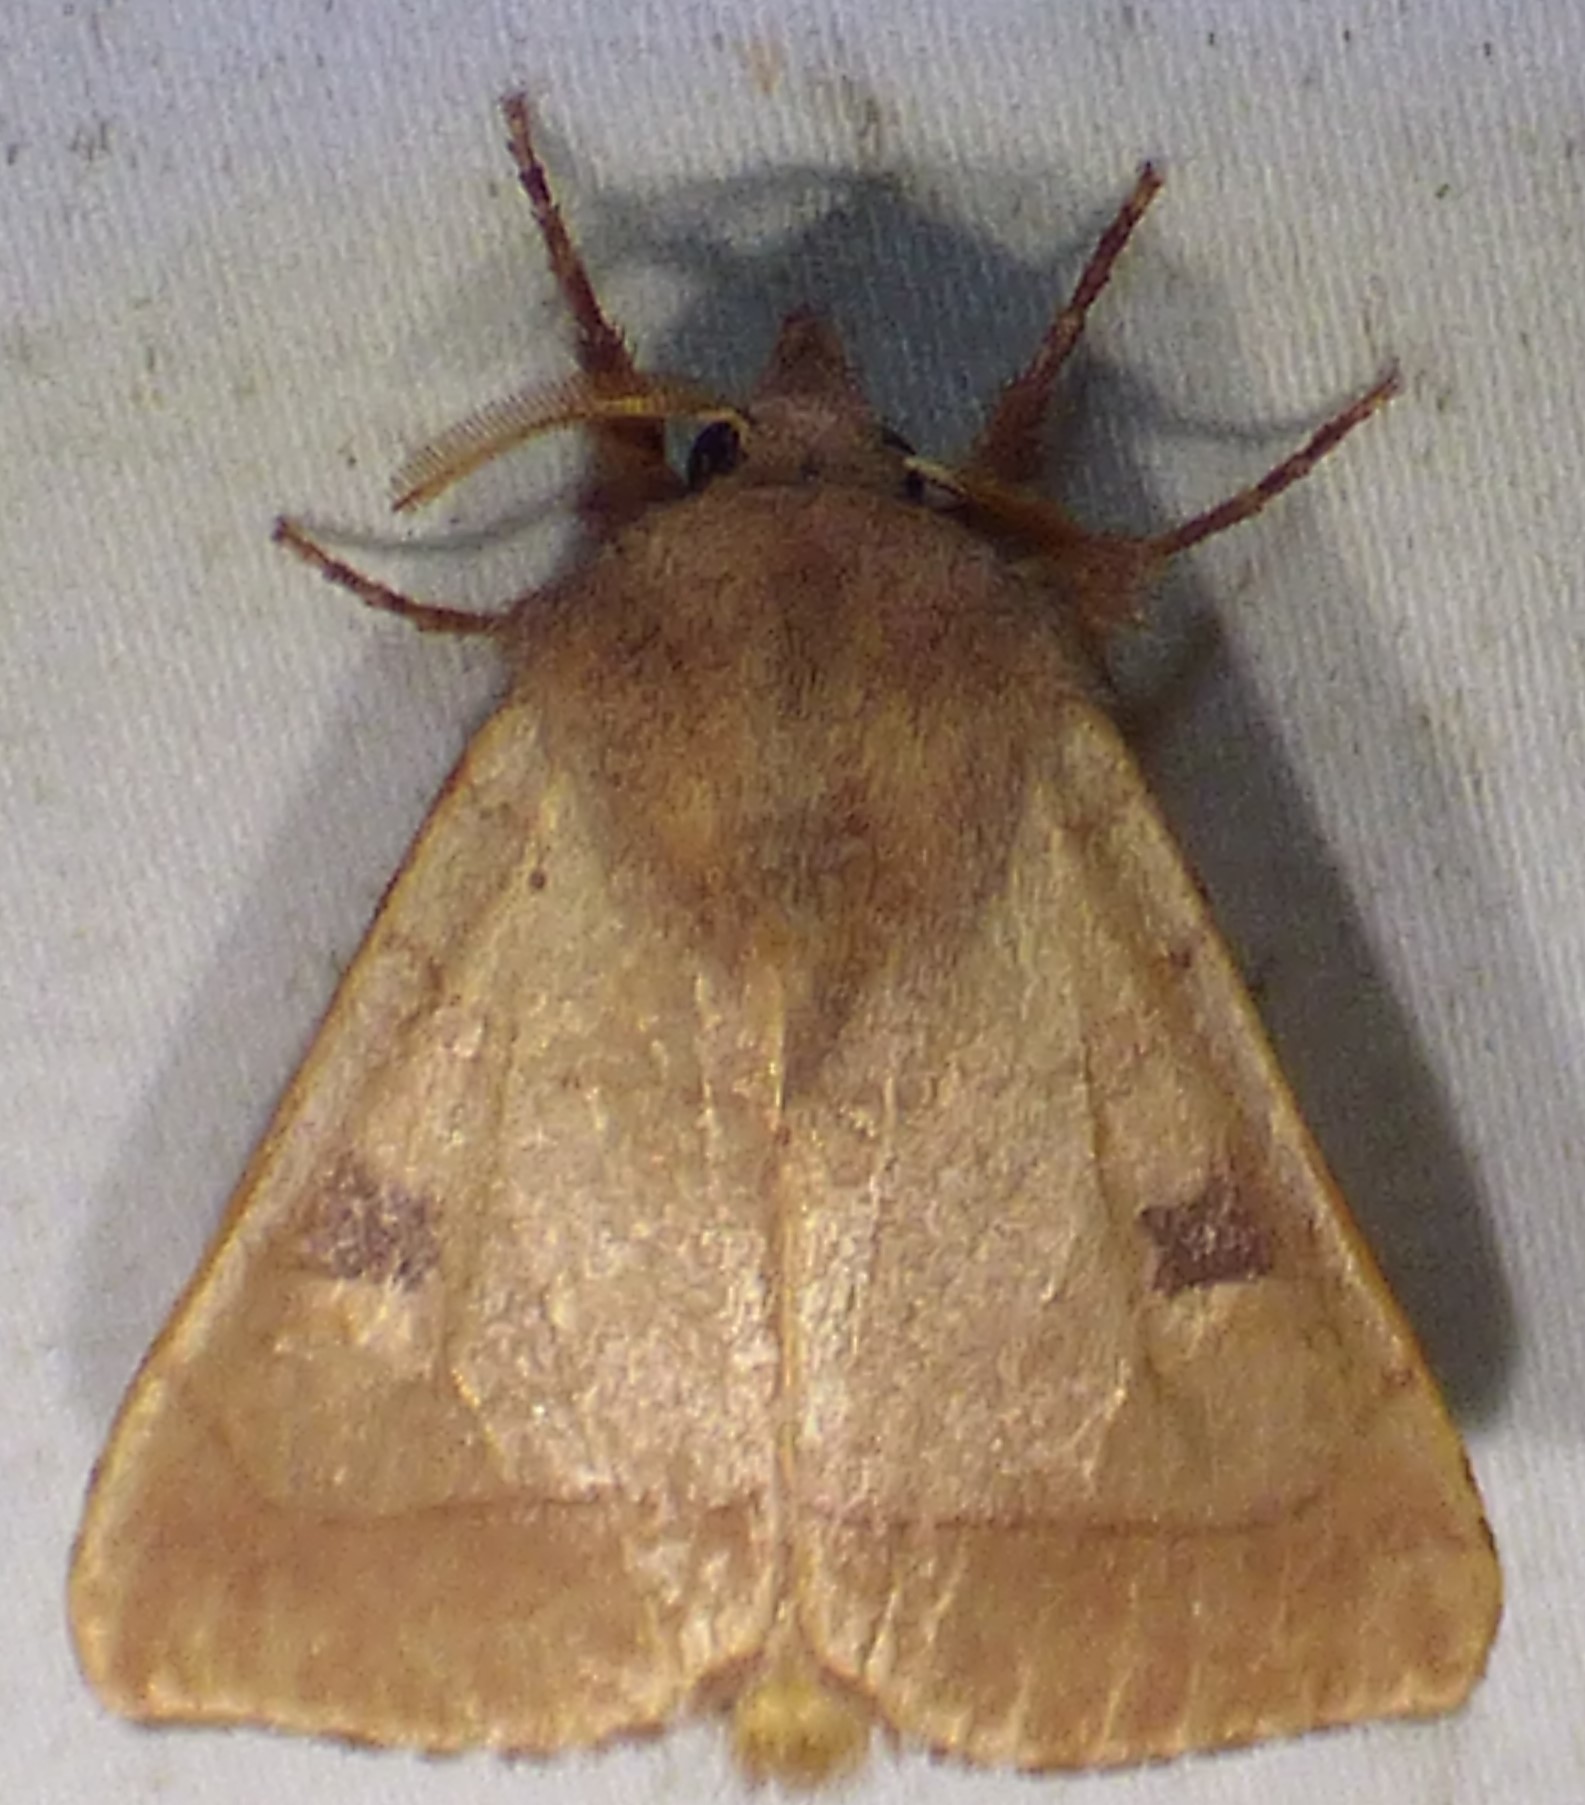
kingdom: Animalia
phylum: Arthropoda
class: Insecta
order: Lepidoptera
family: Noctuidae
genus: Choephora
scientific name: Choephora fungorum
